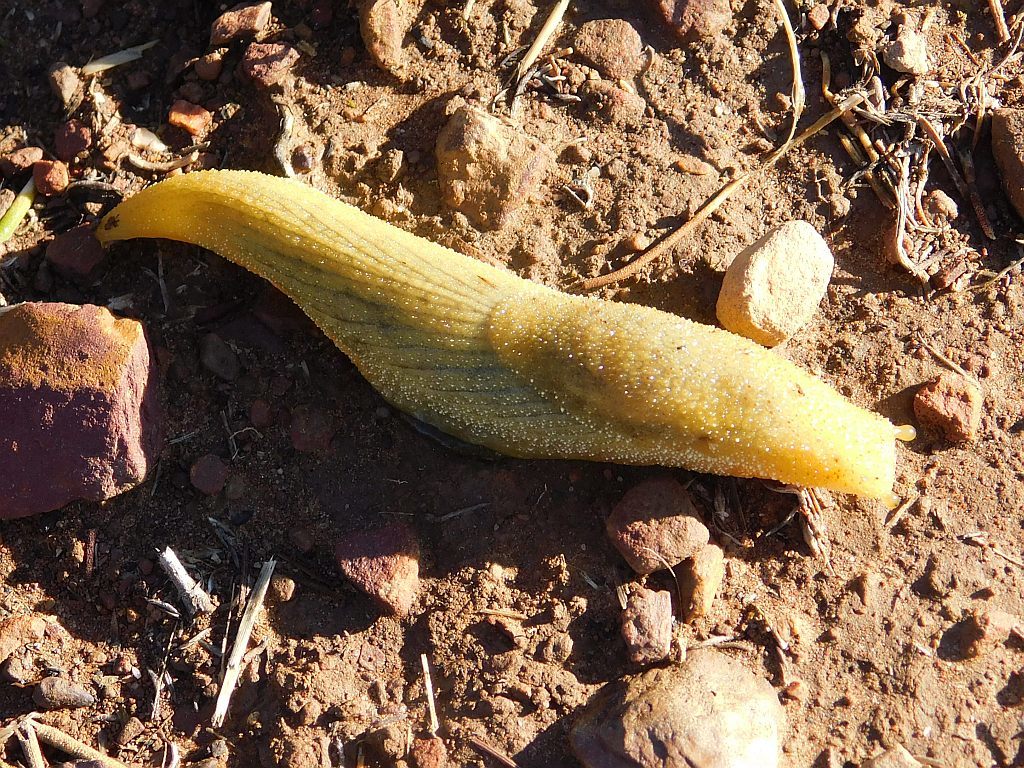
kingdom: Animalia
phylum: Mollusca
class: Gastropoda
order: Stylommatophora
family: Oopeltidae
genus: Oopelta
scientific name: Oopelta flavescens
